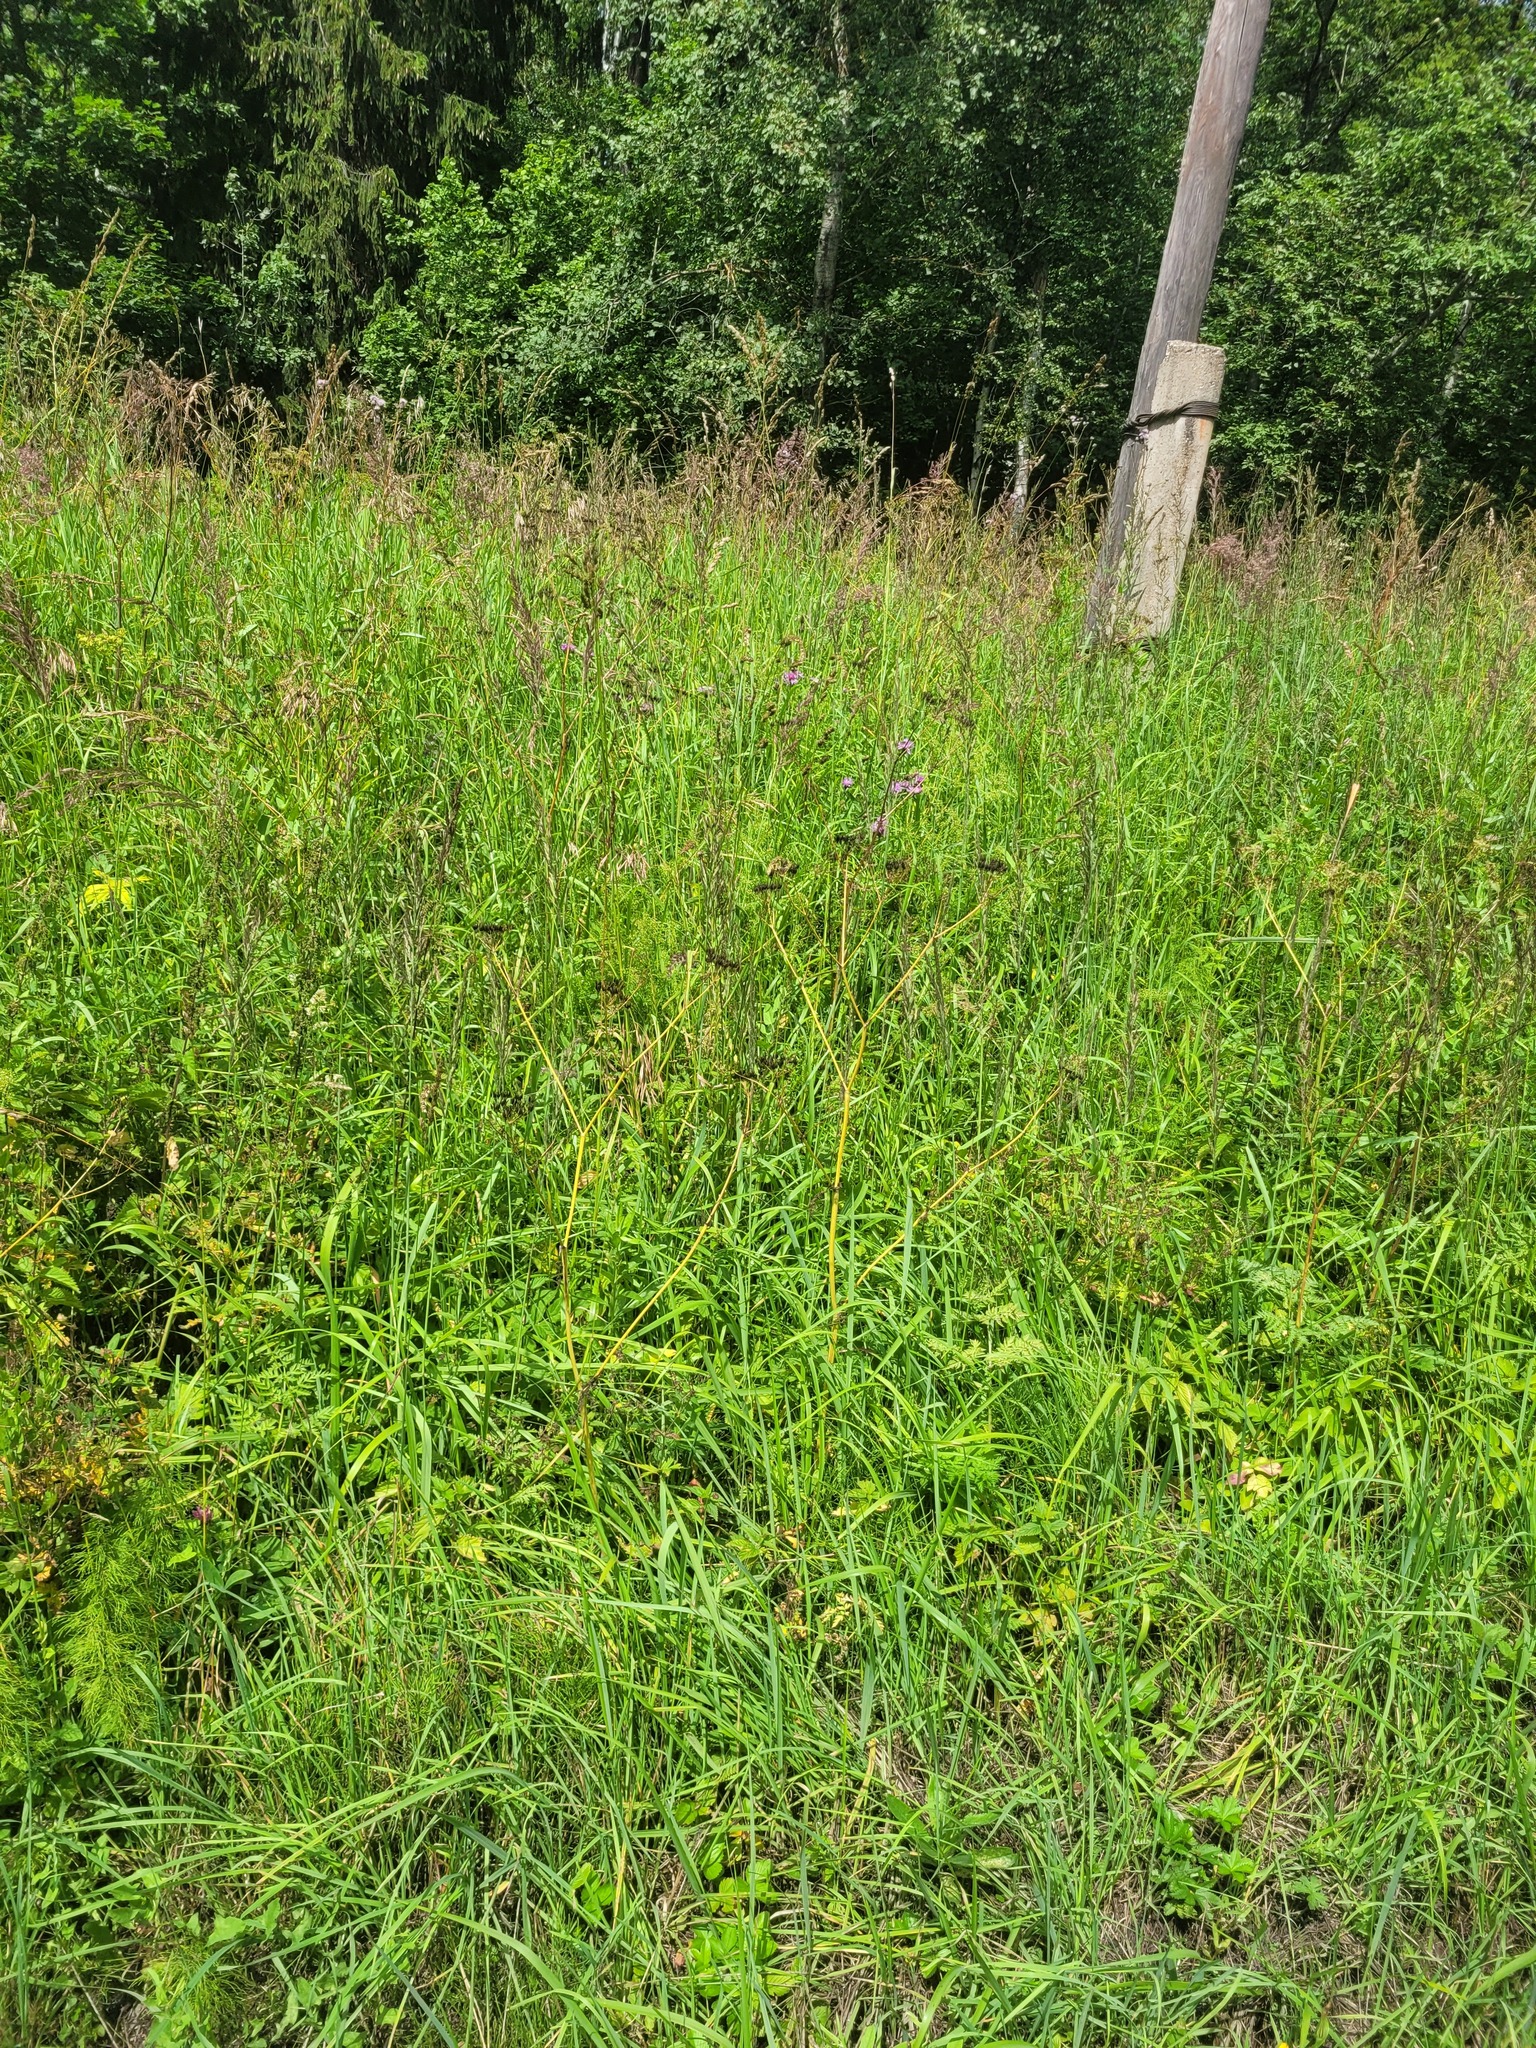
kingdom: Plantae
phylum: Tracheophyta
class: Magnoliopsida
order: Apiales
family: Apiaceae
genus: Anthriscus
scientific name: Anthriscus sylvestris
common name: Cow parsley
